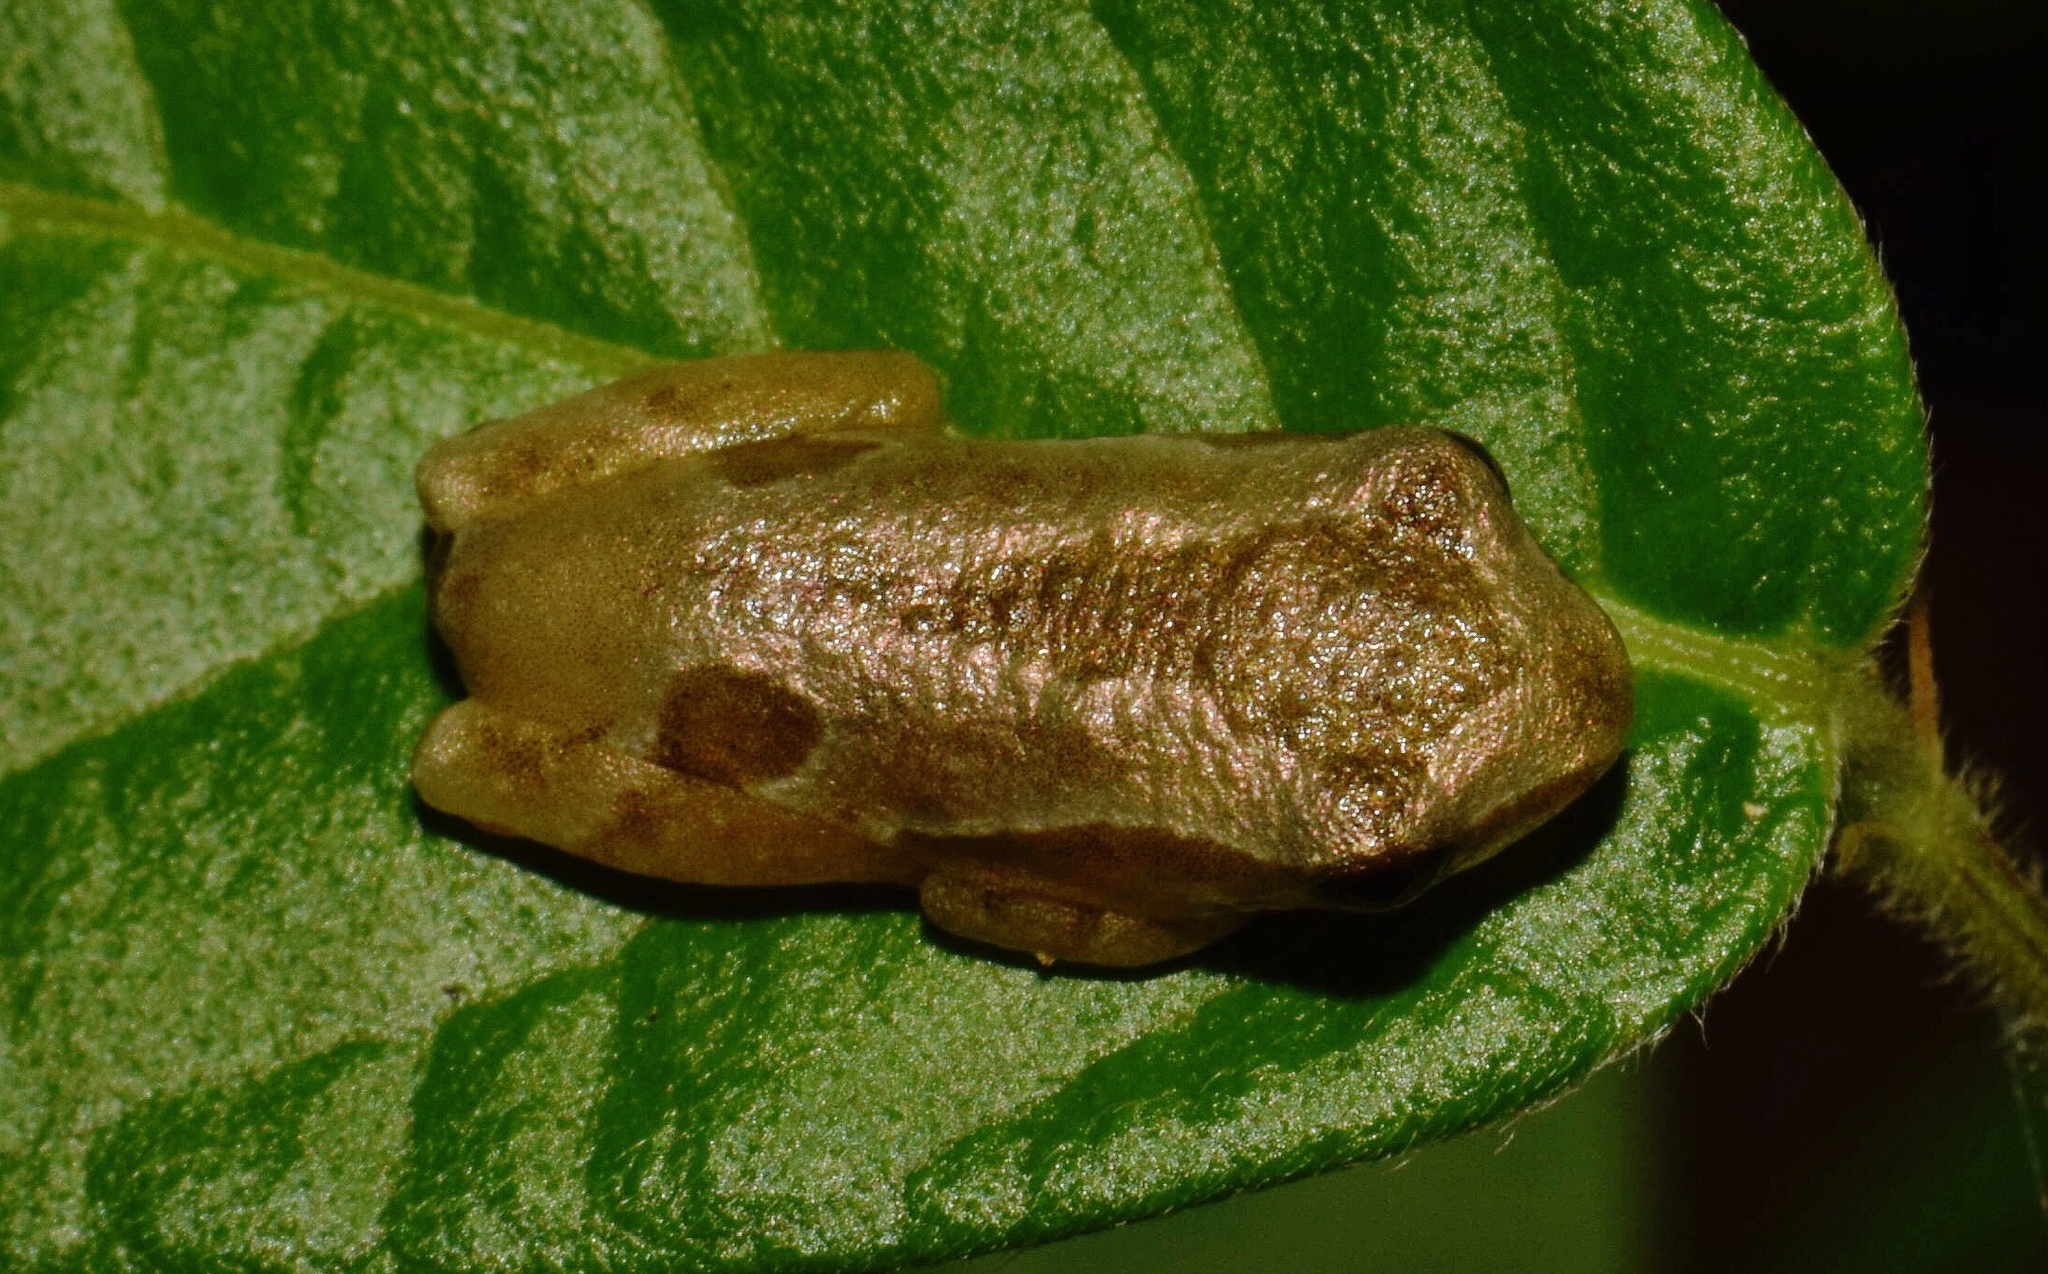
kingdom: Animalia
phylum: Chordata
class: Amphibia
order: Anura
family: Hyperoliidae
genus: Hyperolius
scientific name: Hyperolius marmoratus
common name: Painted reed frog
